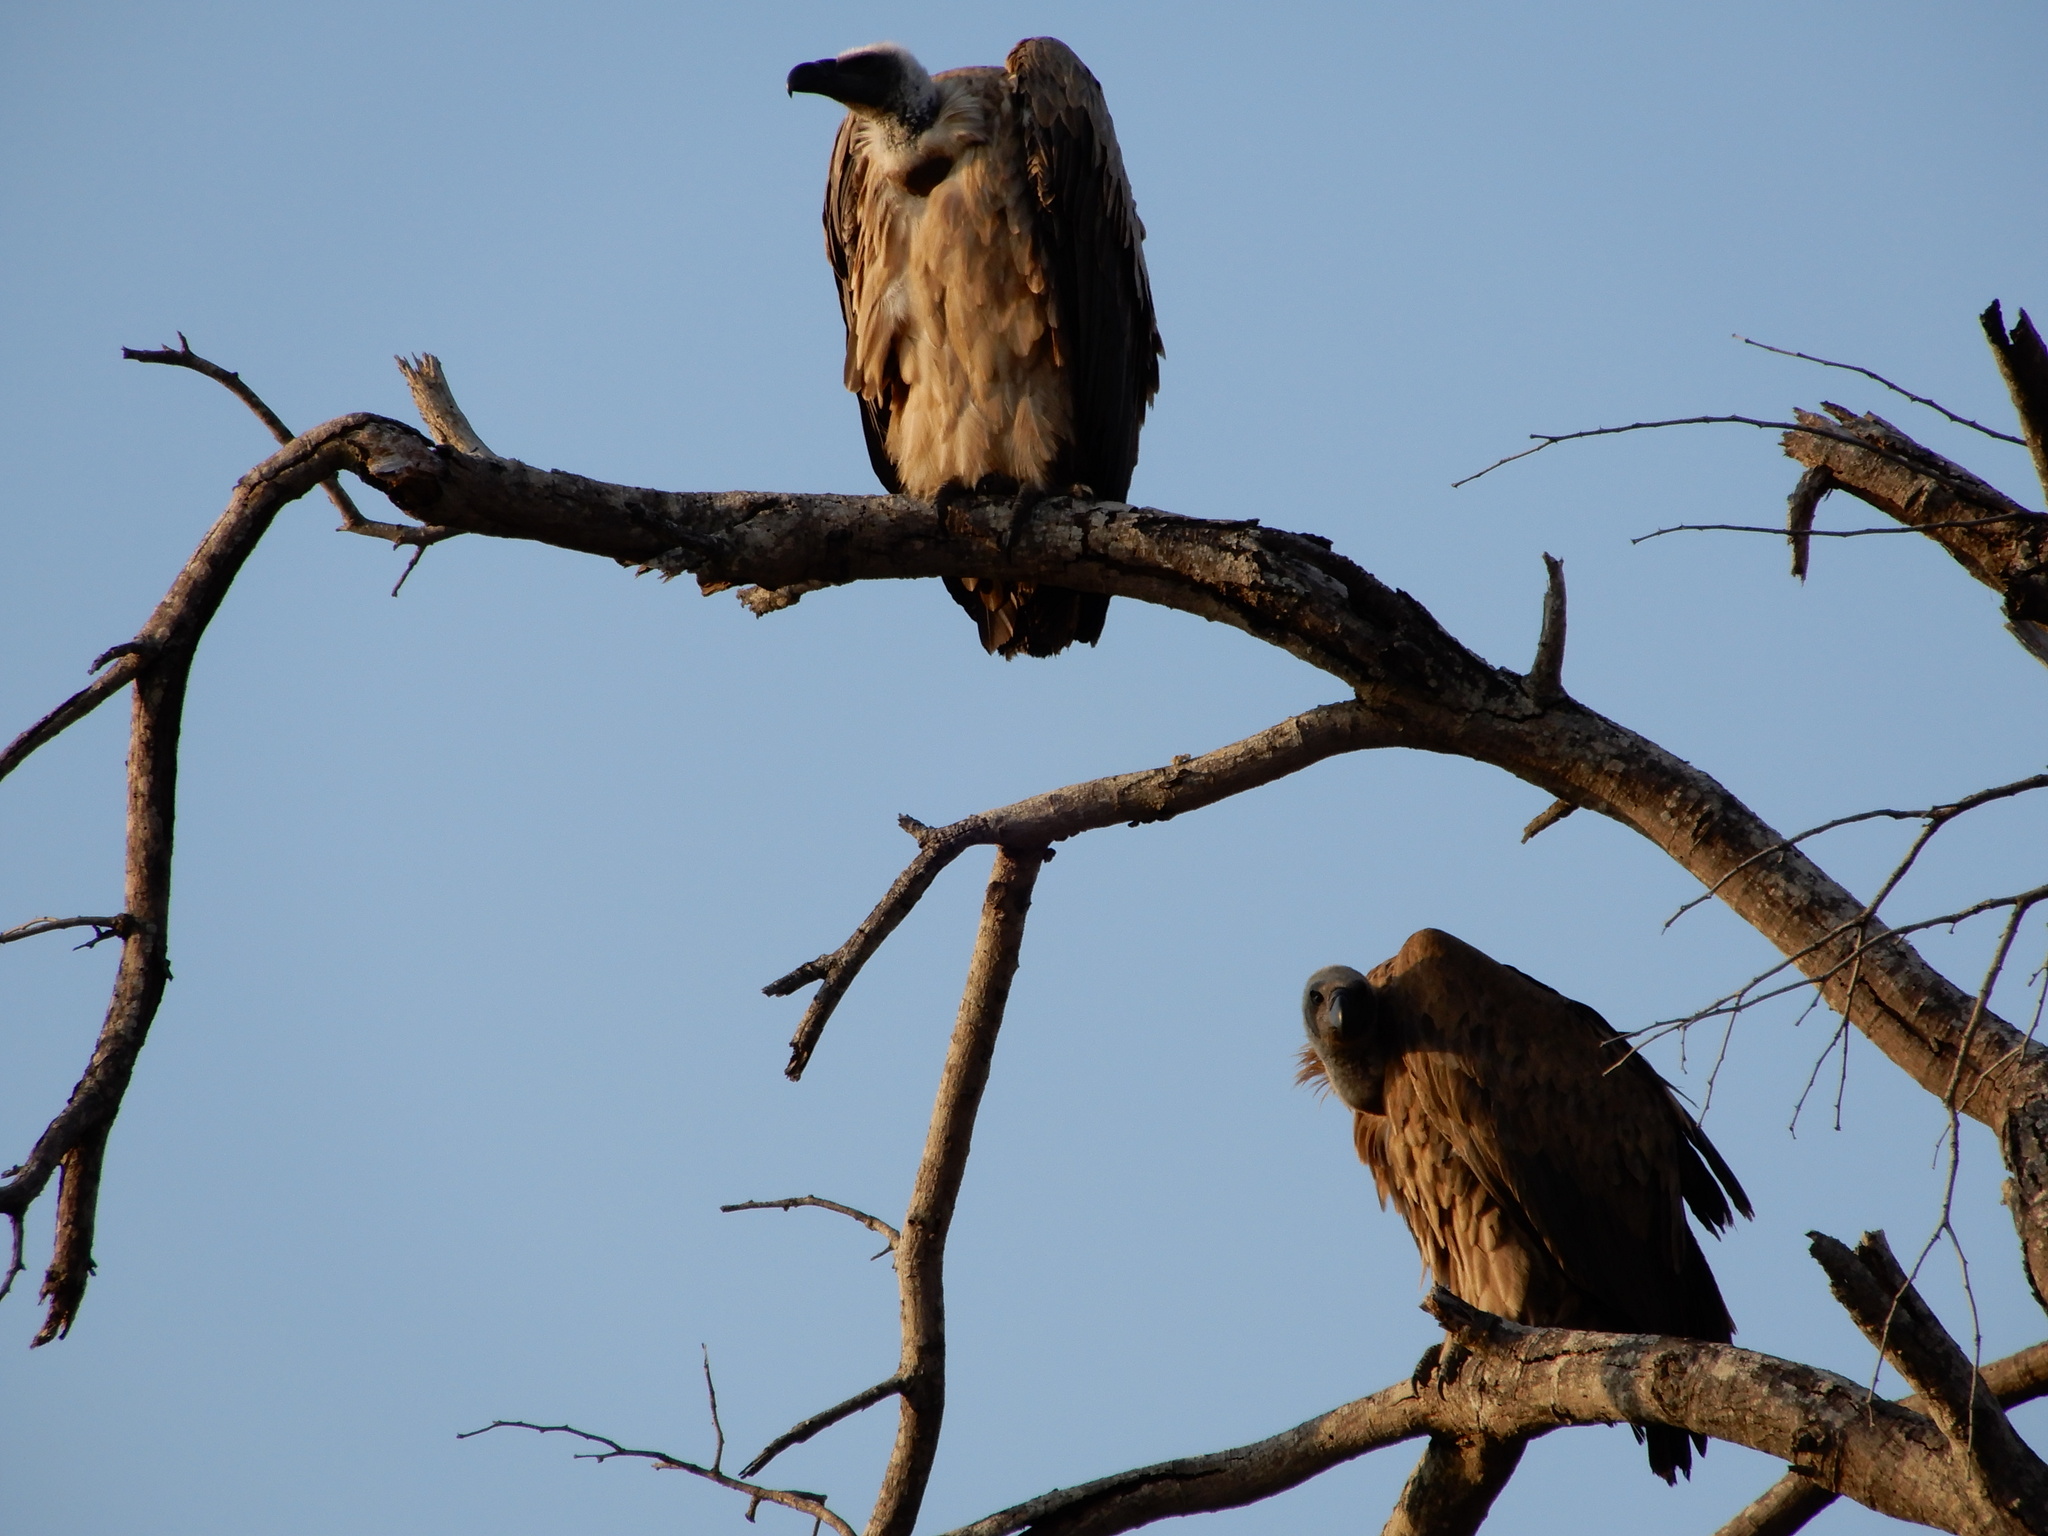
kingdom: Animalia
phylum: Chordata
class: Aves
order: Accipitriformes
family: Accipitridae
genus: Gyps
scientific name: Gyps africanus
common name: White-backed vulture
